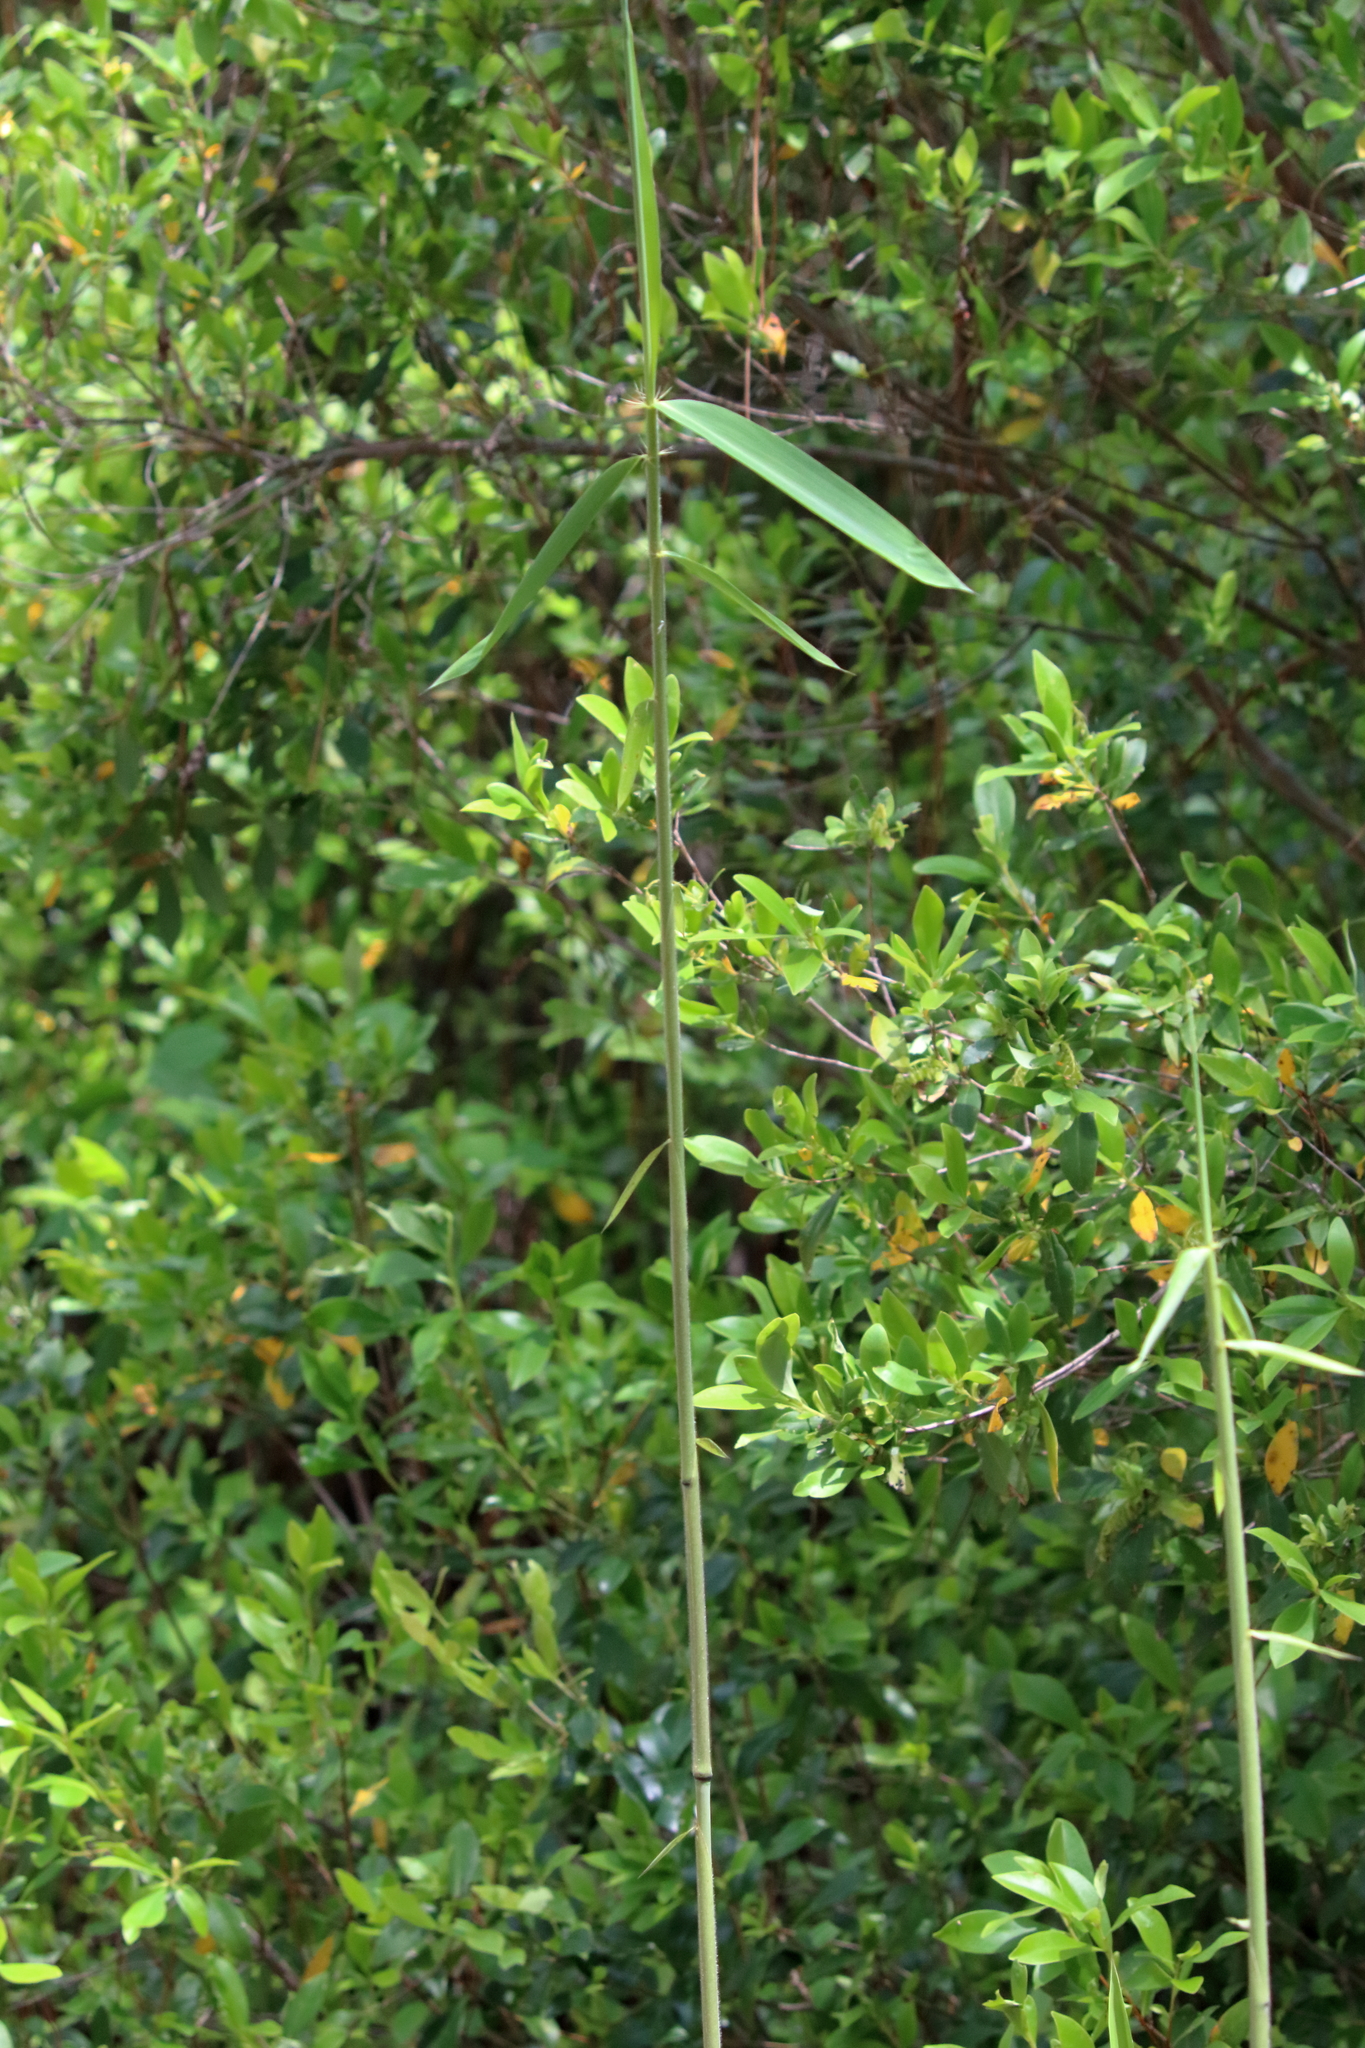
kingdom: Plantae
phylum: Tracheophyta
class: Liliopsida
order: Poales
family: Poaceae
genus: Arundinaria
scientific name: Arundinaria gigantea
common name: Giant cane
